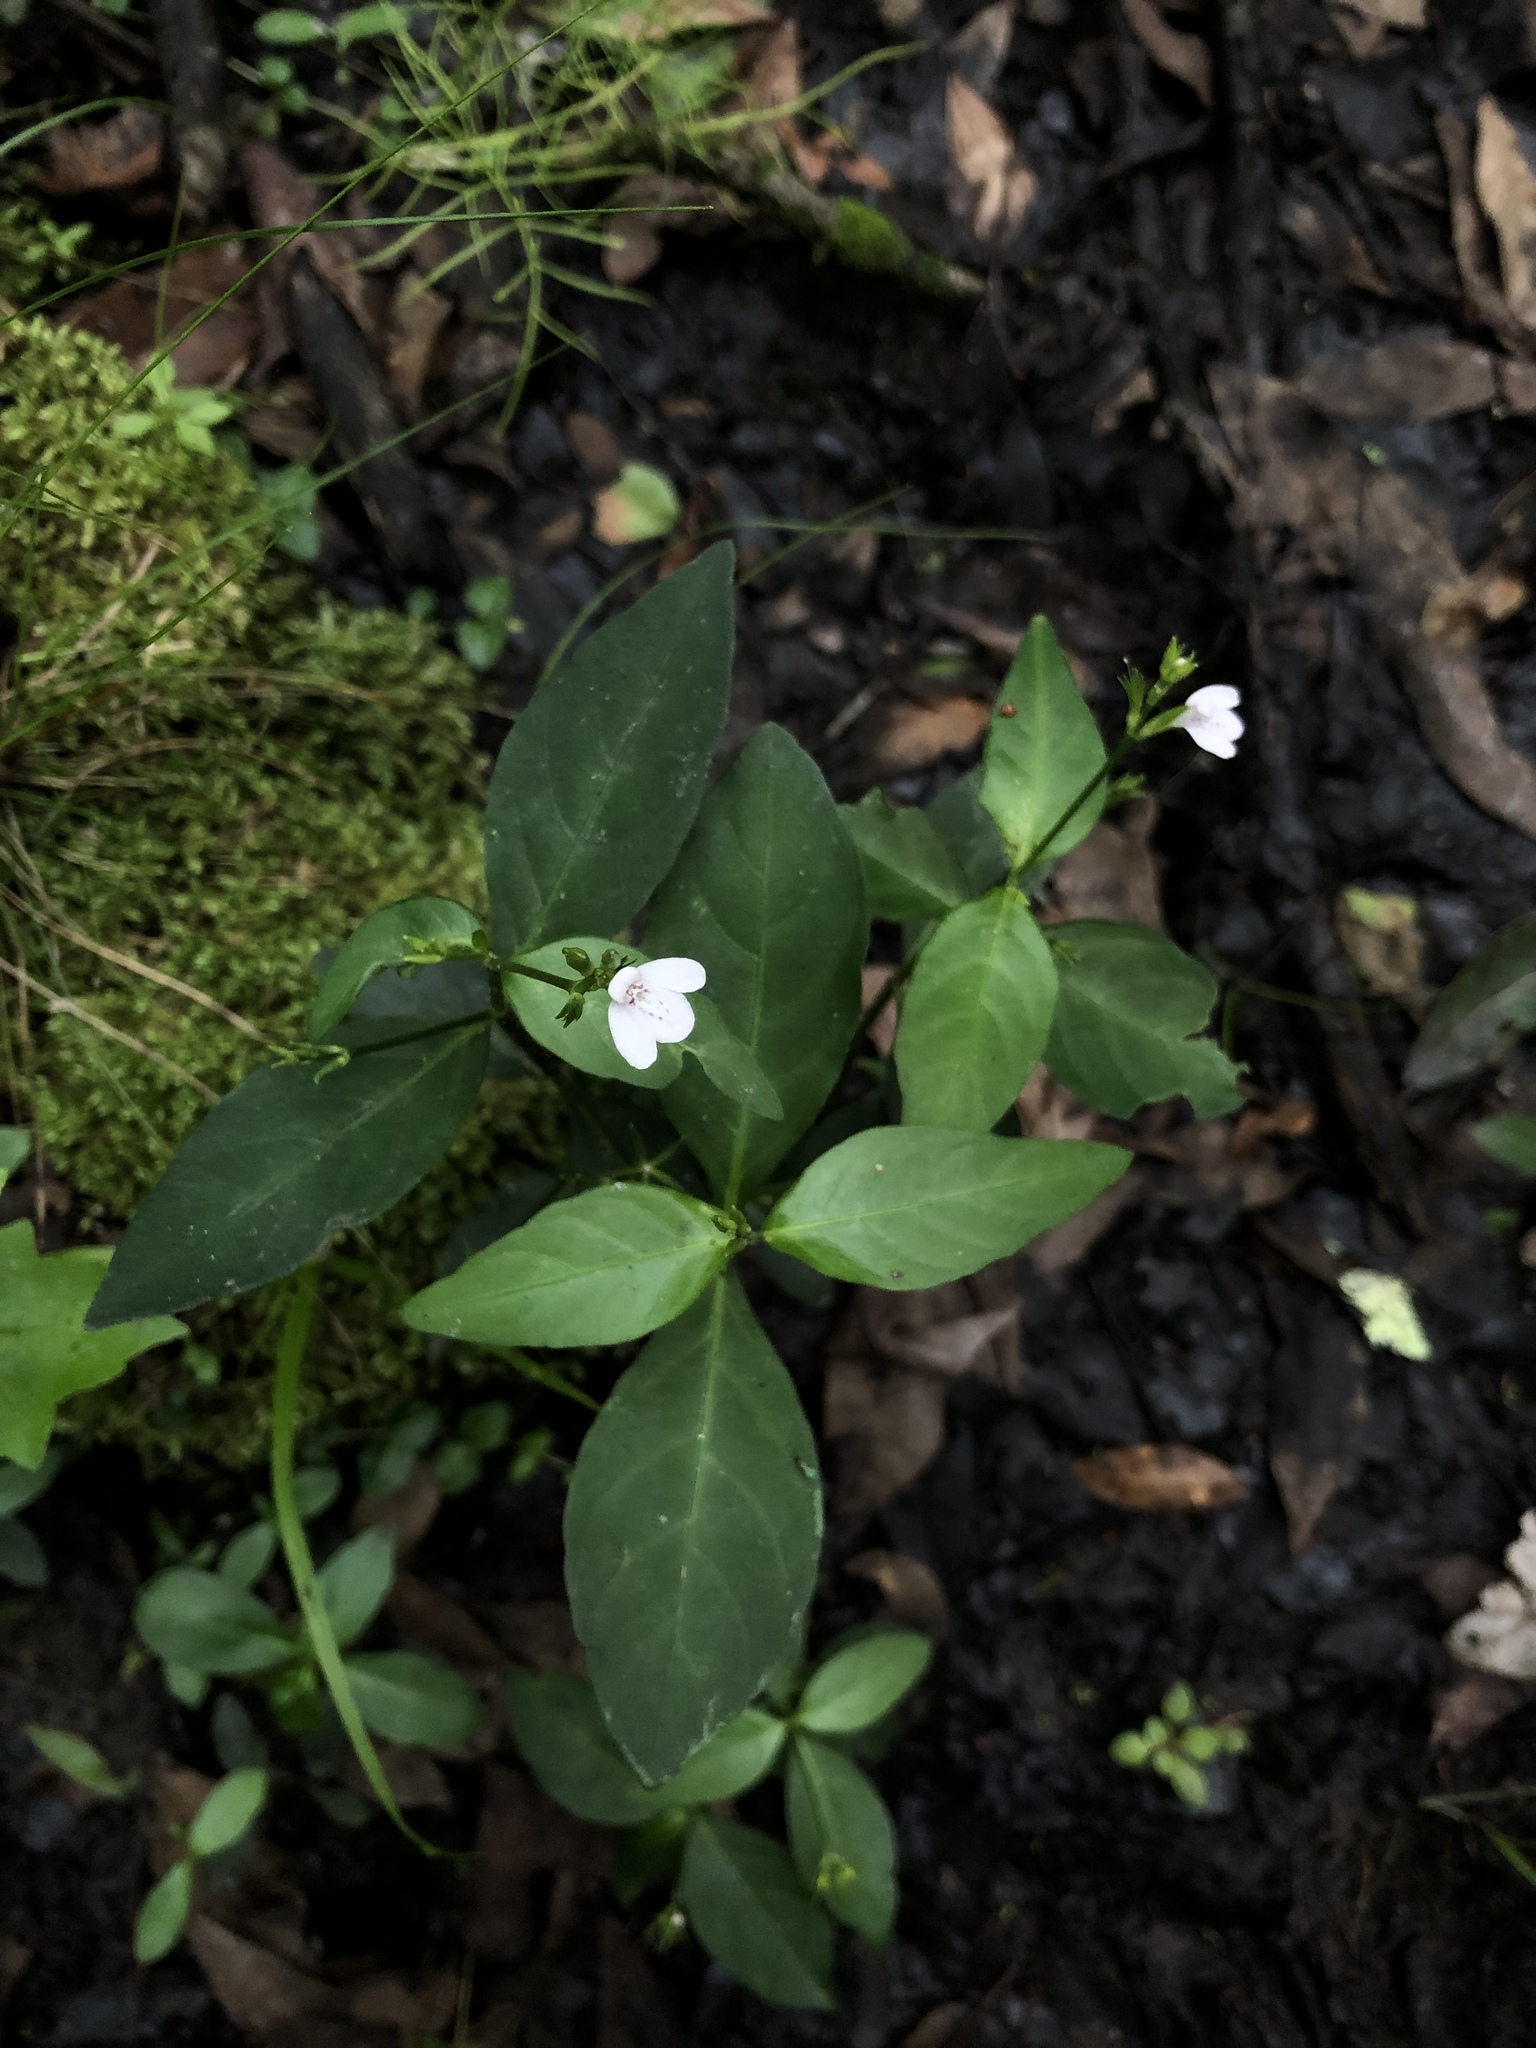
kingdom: Plantae
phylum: Tracheophyta
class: Magnoliopsida
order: Lamiales
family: Acanthaceae
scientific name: Acanthaceae
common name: Acanthaceae
